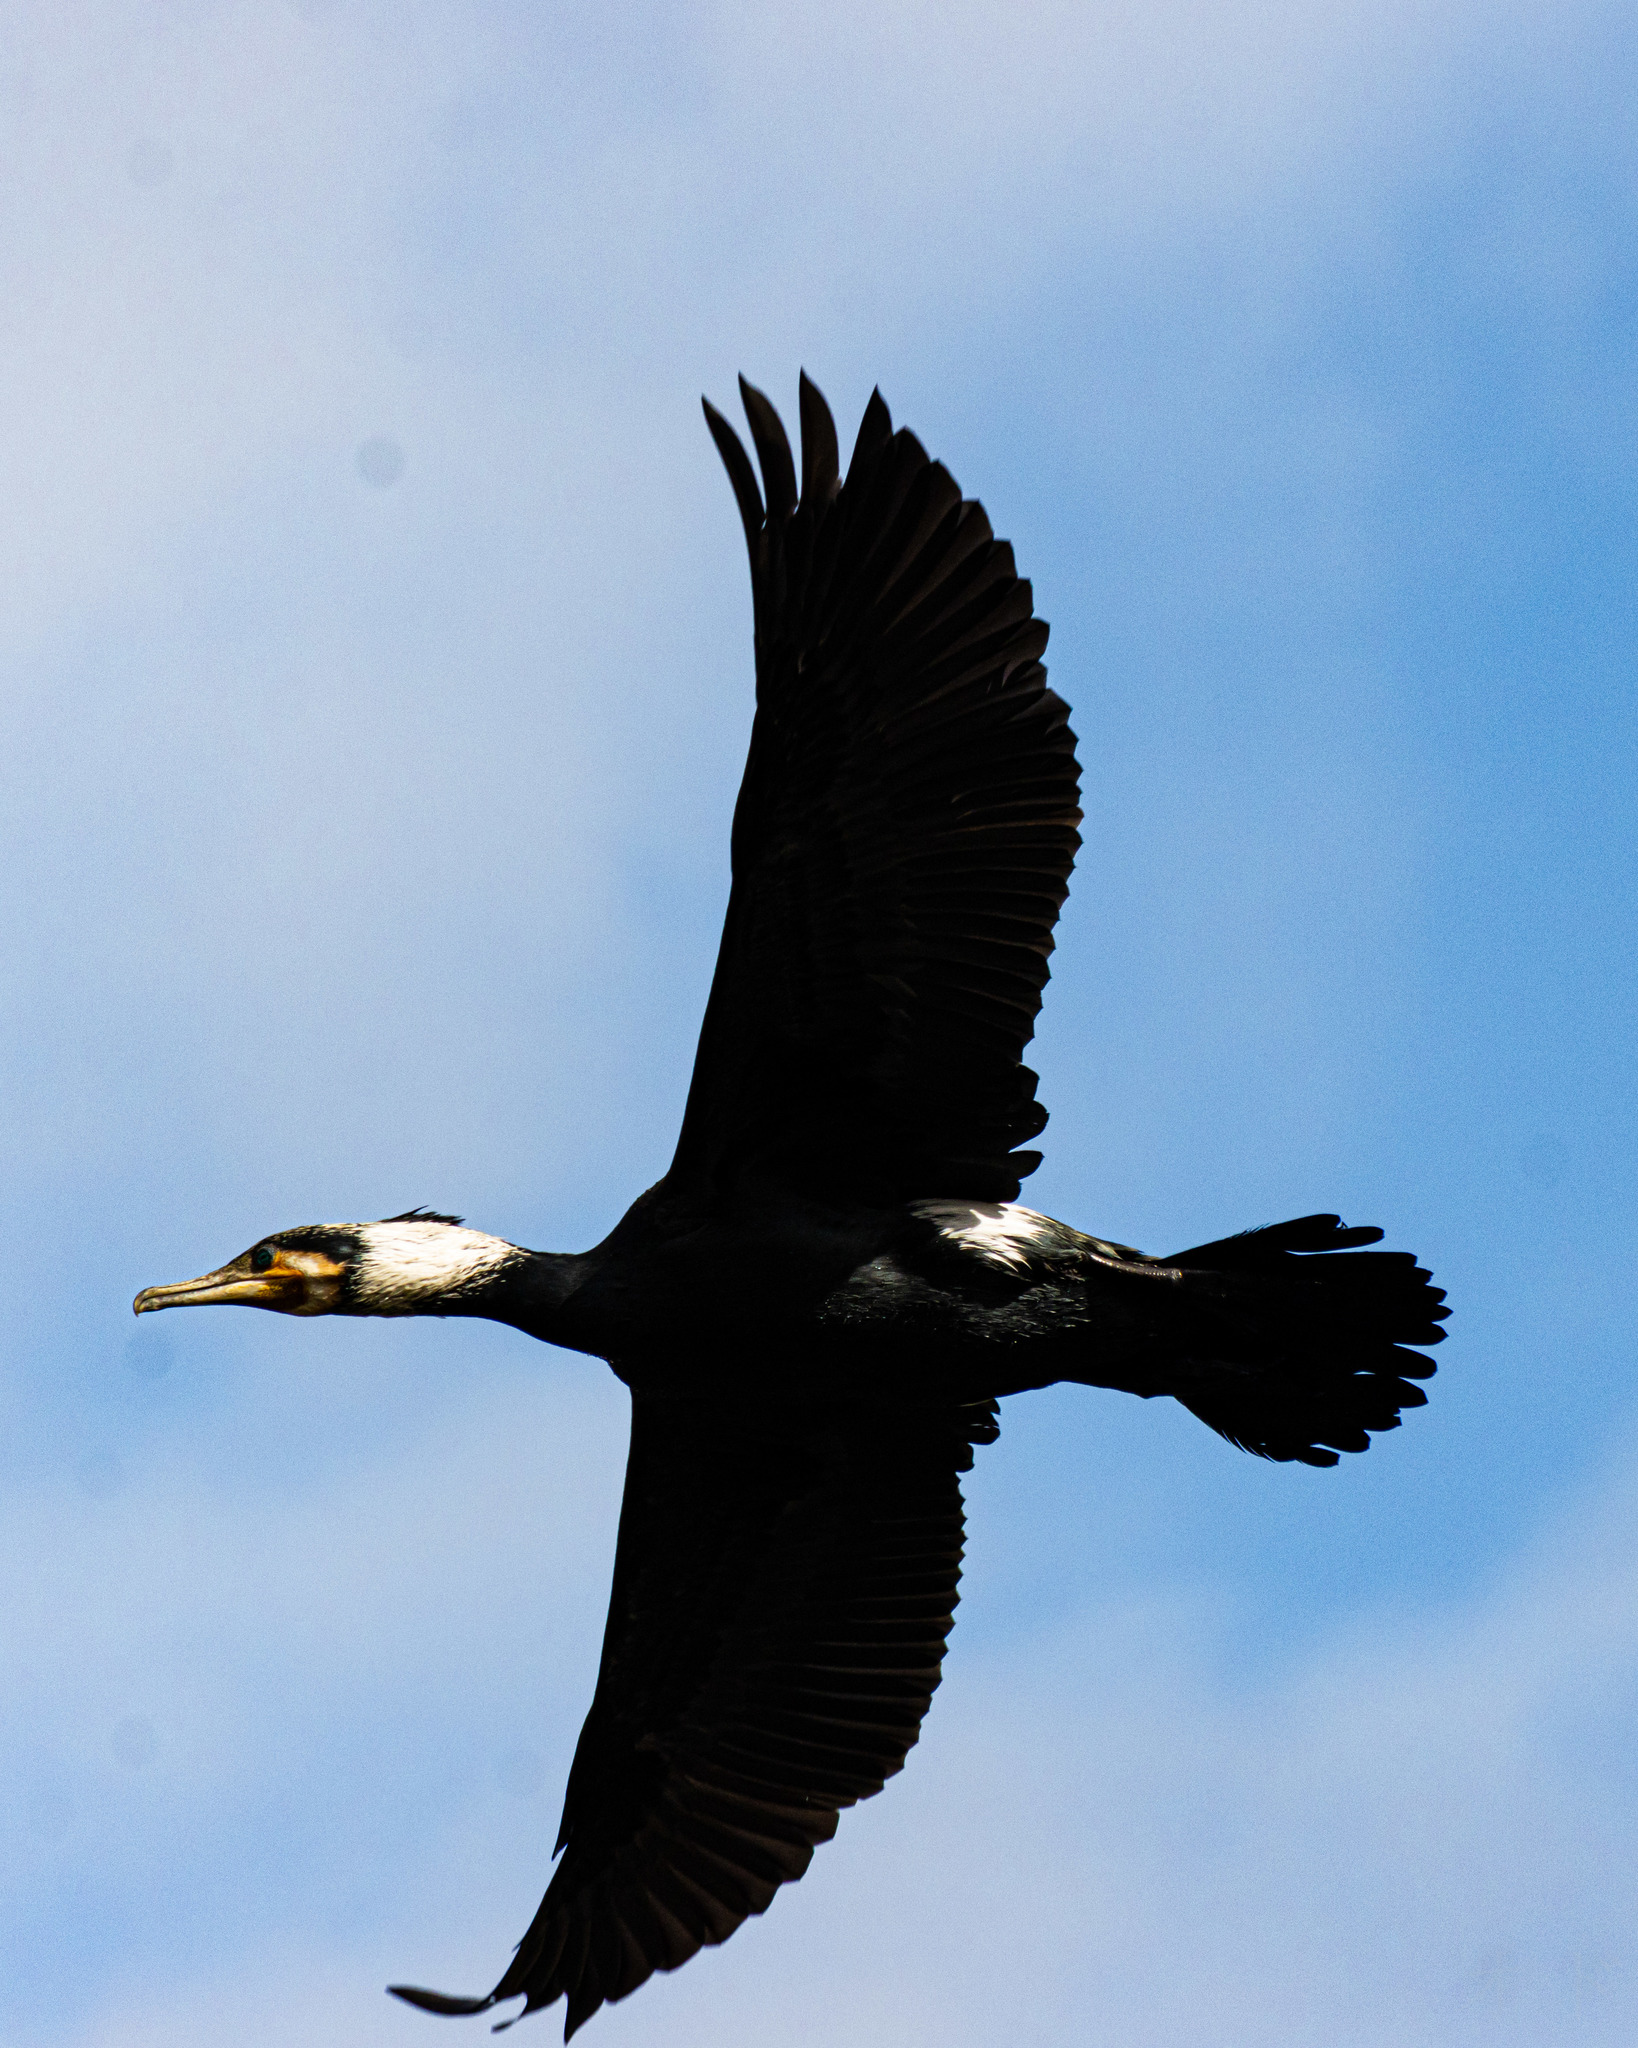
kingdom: Animalia
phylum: Chordata
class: Aves
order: Suliformes
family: Phalacrocoracidae
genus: Phalacrocorax
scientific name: Phalacrocorax carbo
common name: Great cormorant
